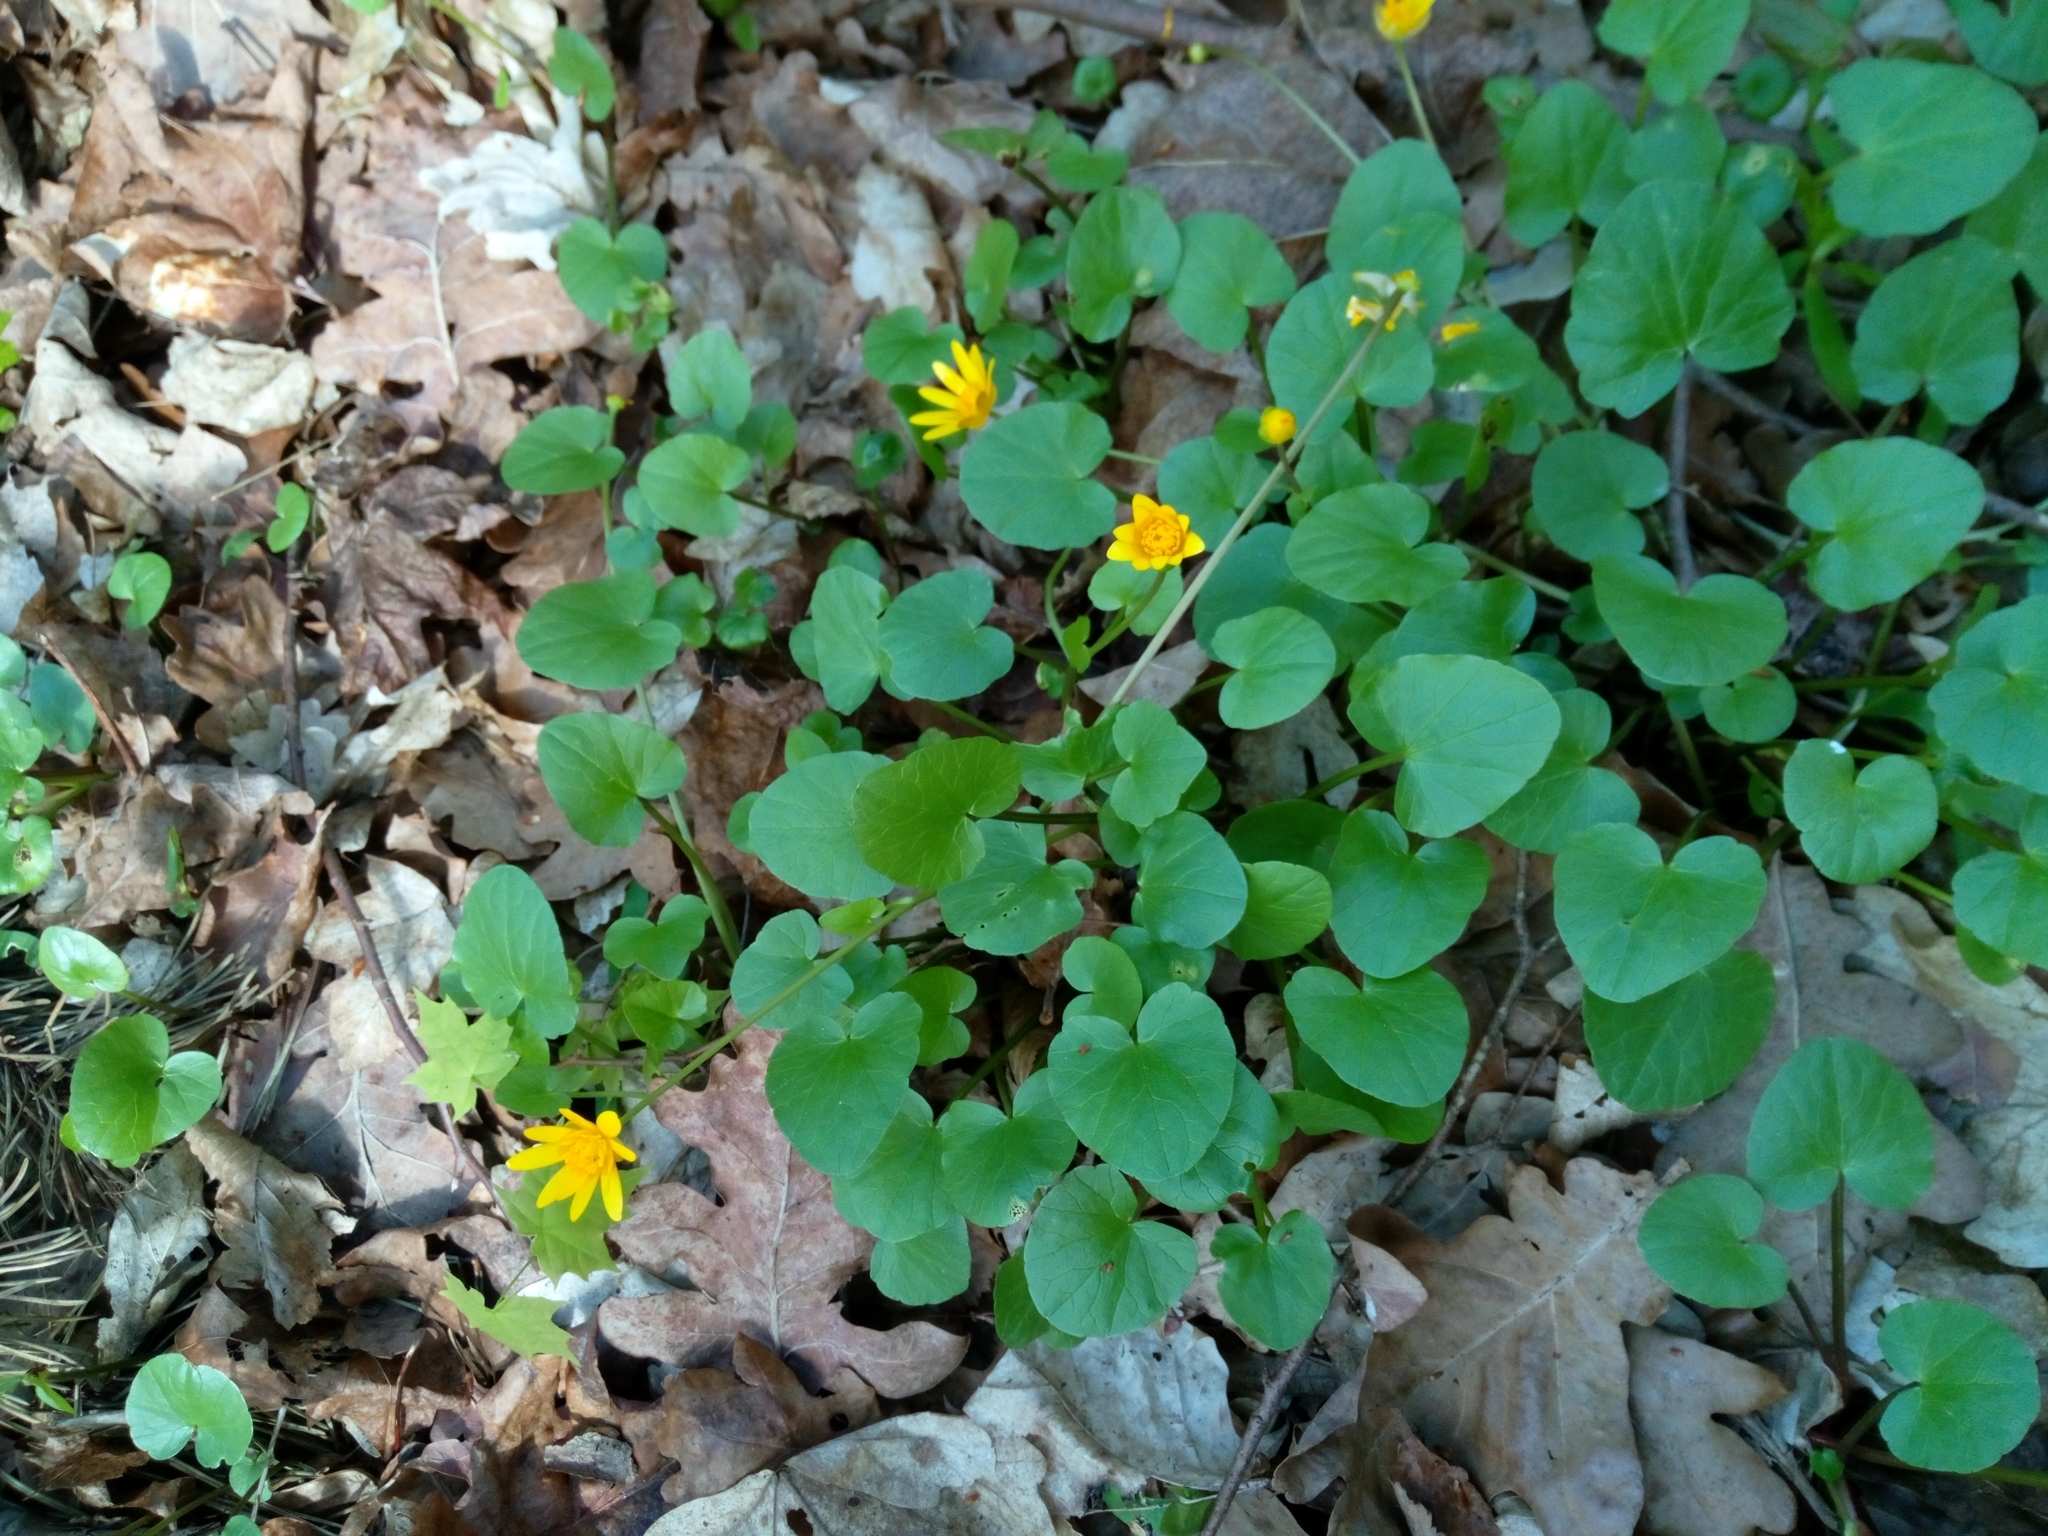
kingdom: Plantae
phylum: Tracheophyta
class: Magnoliopsida
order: Ranunculales
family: Ranunculaceae
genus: Ficaria
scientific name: Ficaria verna
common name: Lesser celandine
